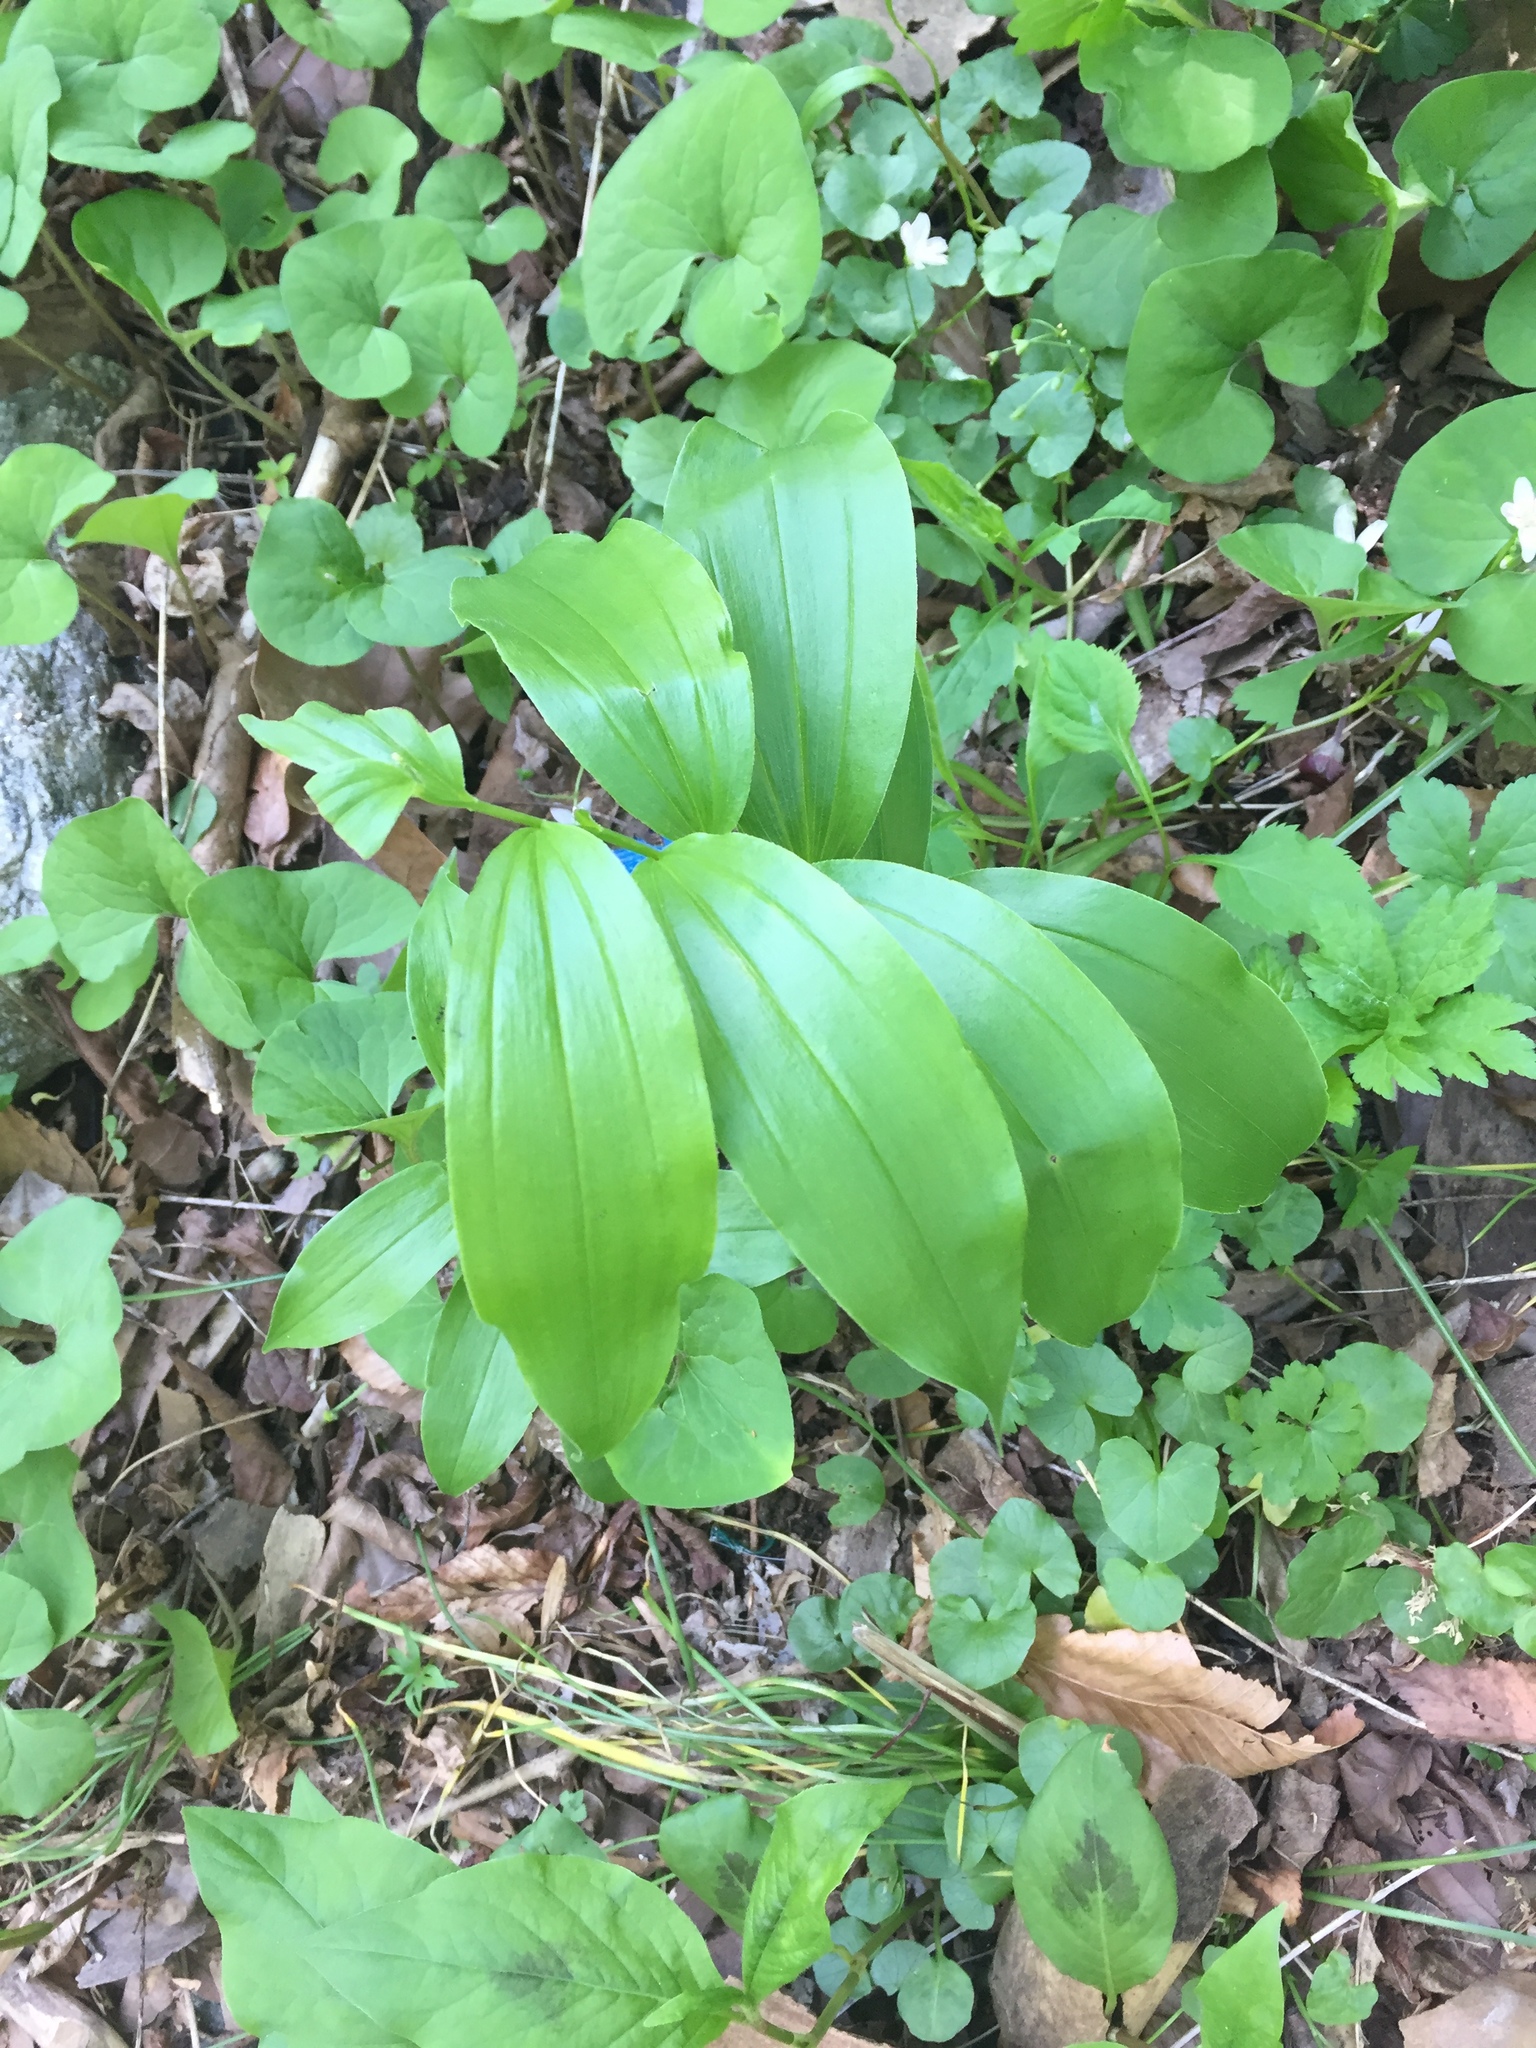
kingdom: Plantae
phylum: Tracheophyta
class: Liliopsida
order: Asparagales
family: Asparagaceae
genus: Maianthemum
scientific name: Maianthemum racemosum
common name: False spikenard
